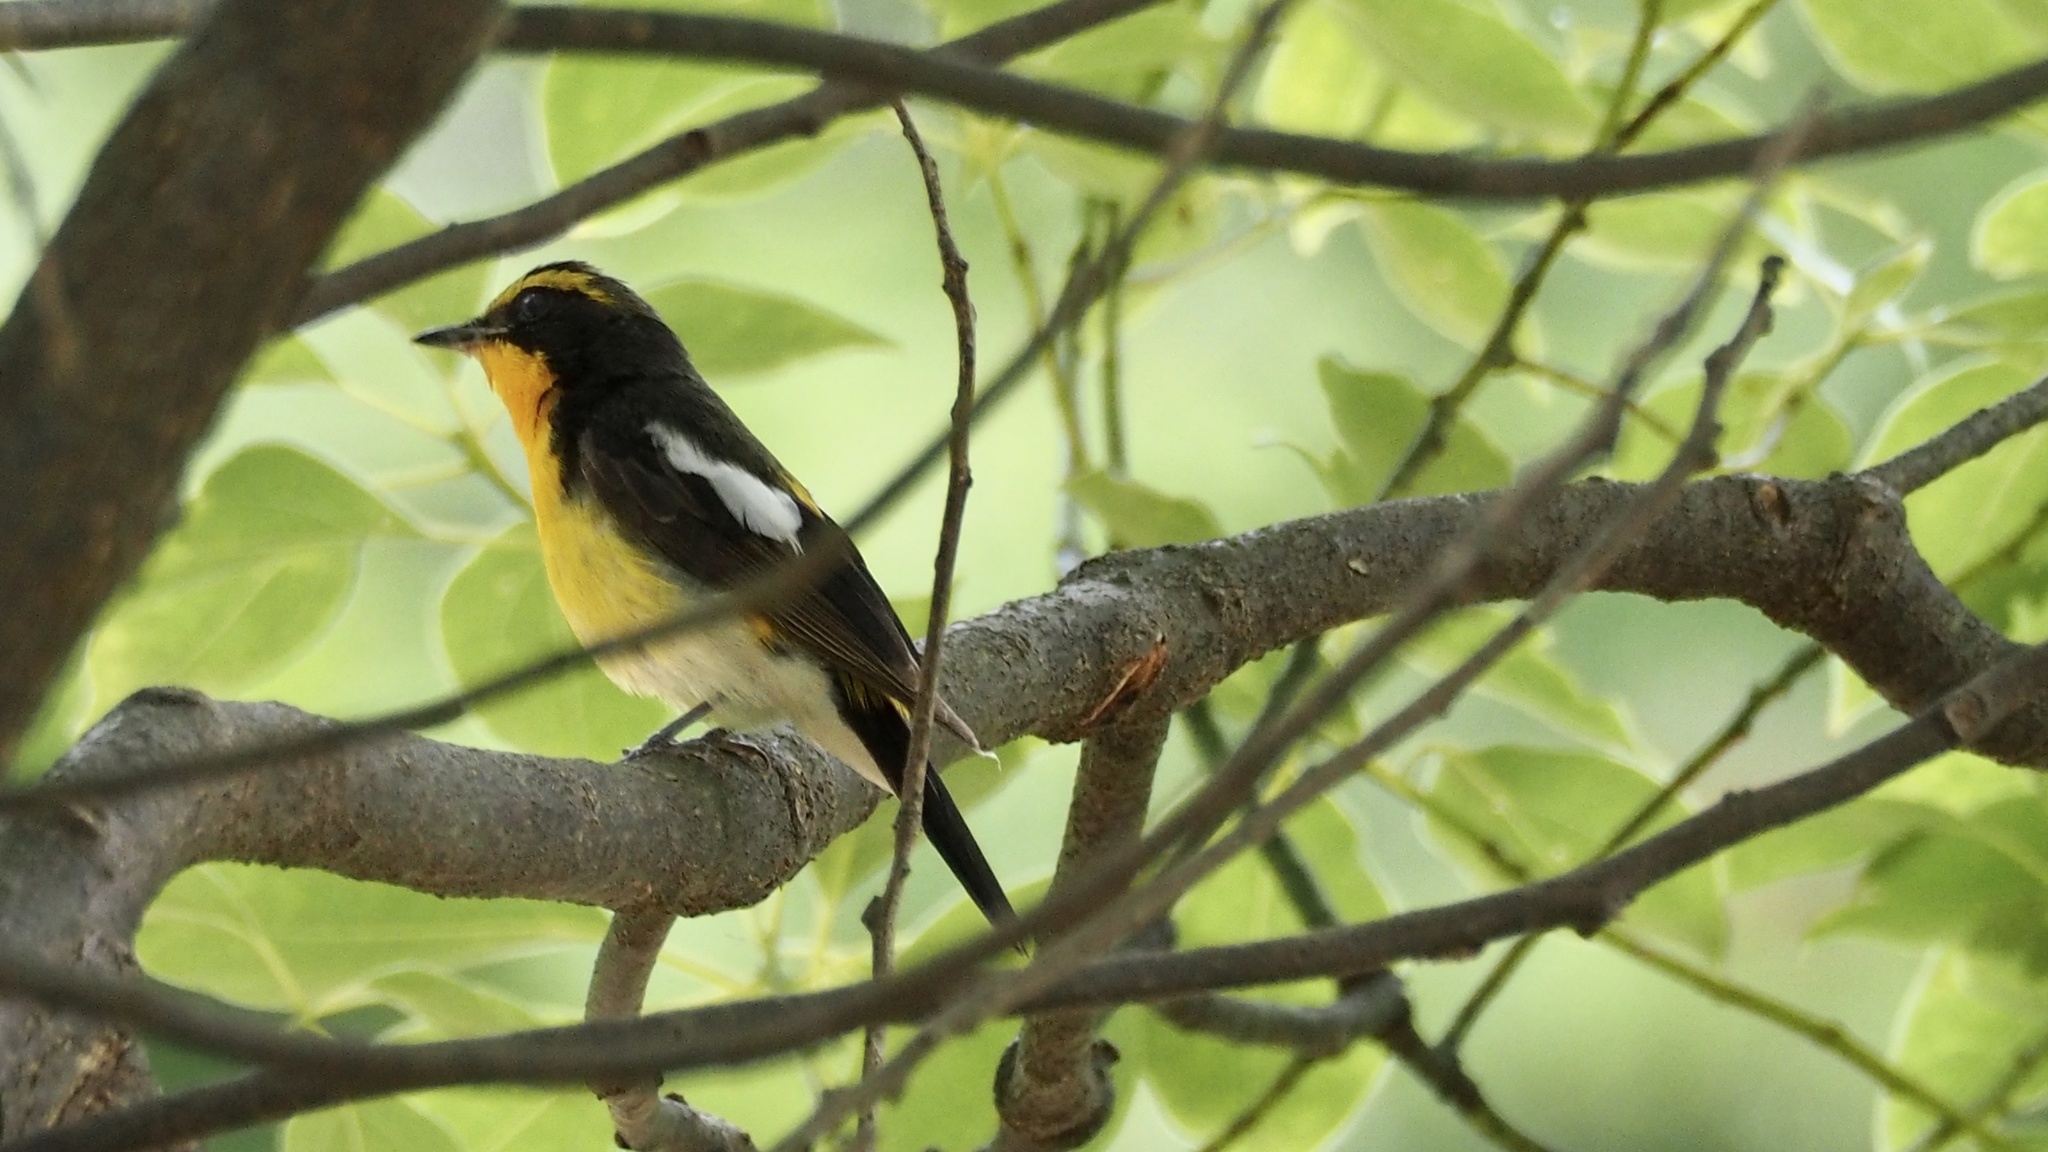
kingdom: Animalia
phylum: Chordata
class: Aves
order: Passeriformes
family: Muscicapidae
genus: Ficedula
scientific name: Ficedula narcissina
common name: Narcissus flycatcher
